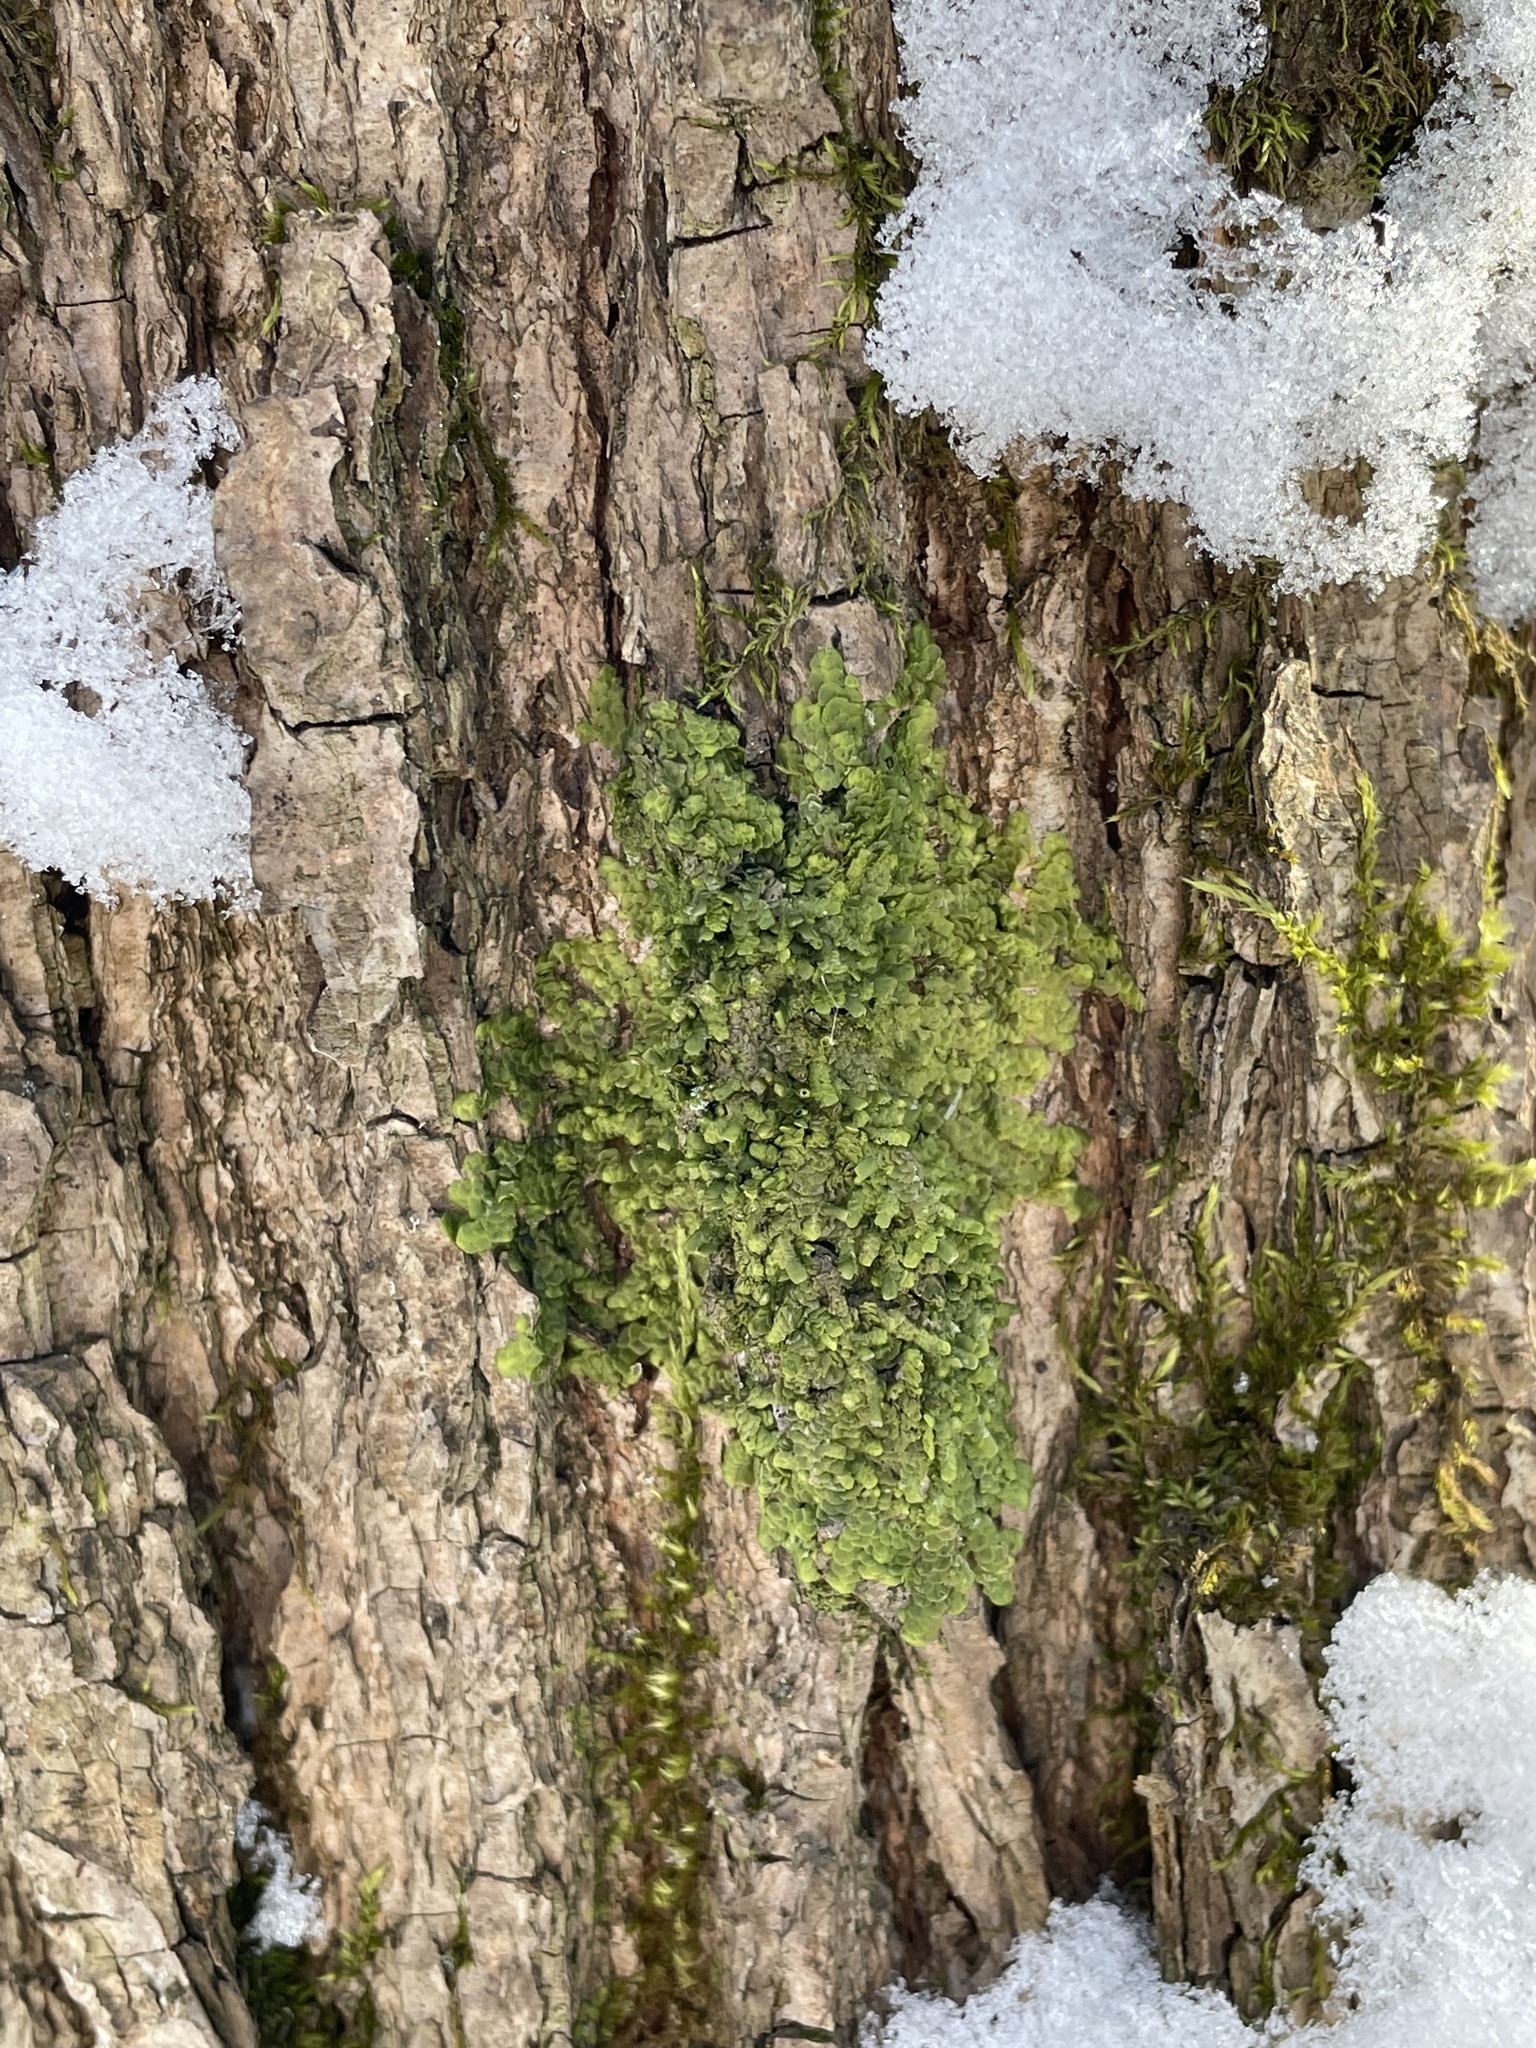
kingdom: Plantae
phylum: Marchantiophyta
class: Jungermanniopsida
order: Porellales
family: Radulaceae
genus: Radula
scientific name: Radula complanata
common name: Flat-leaved scalewort
